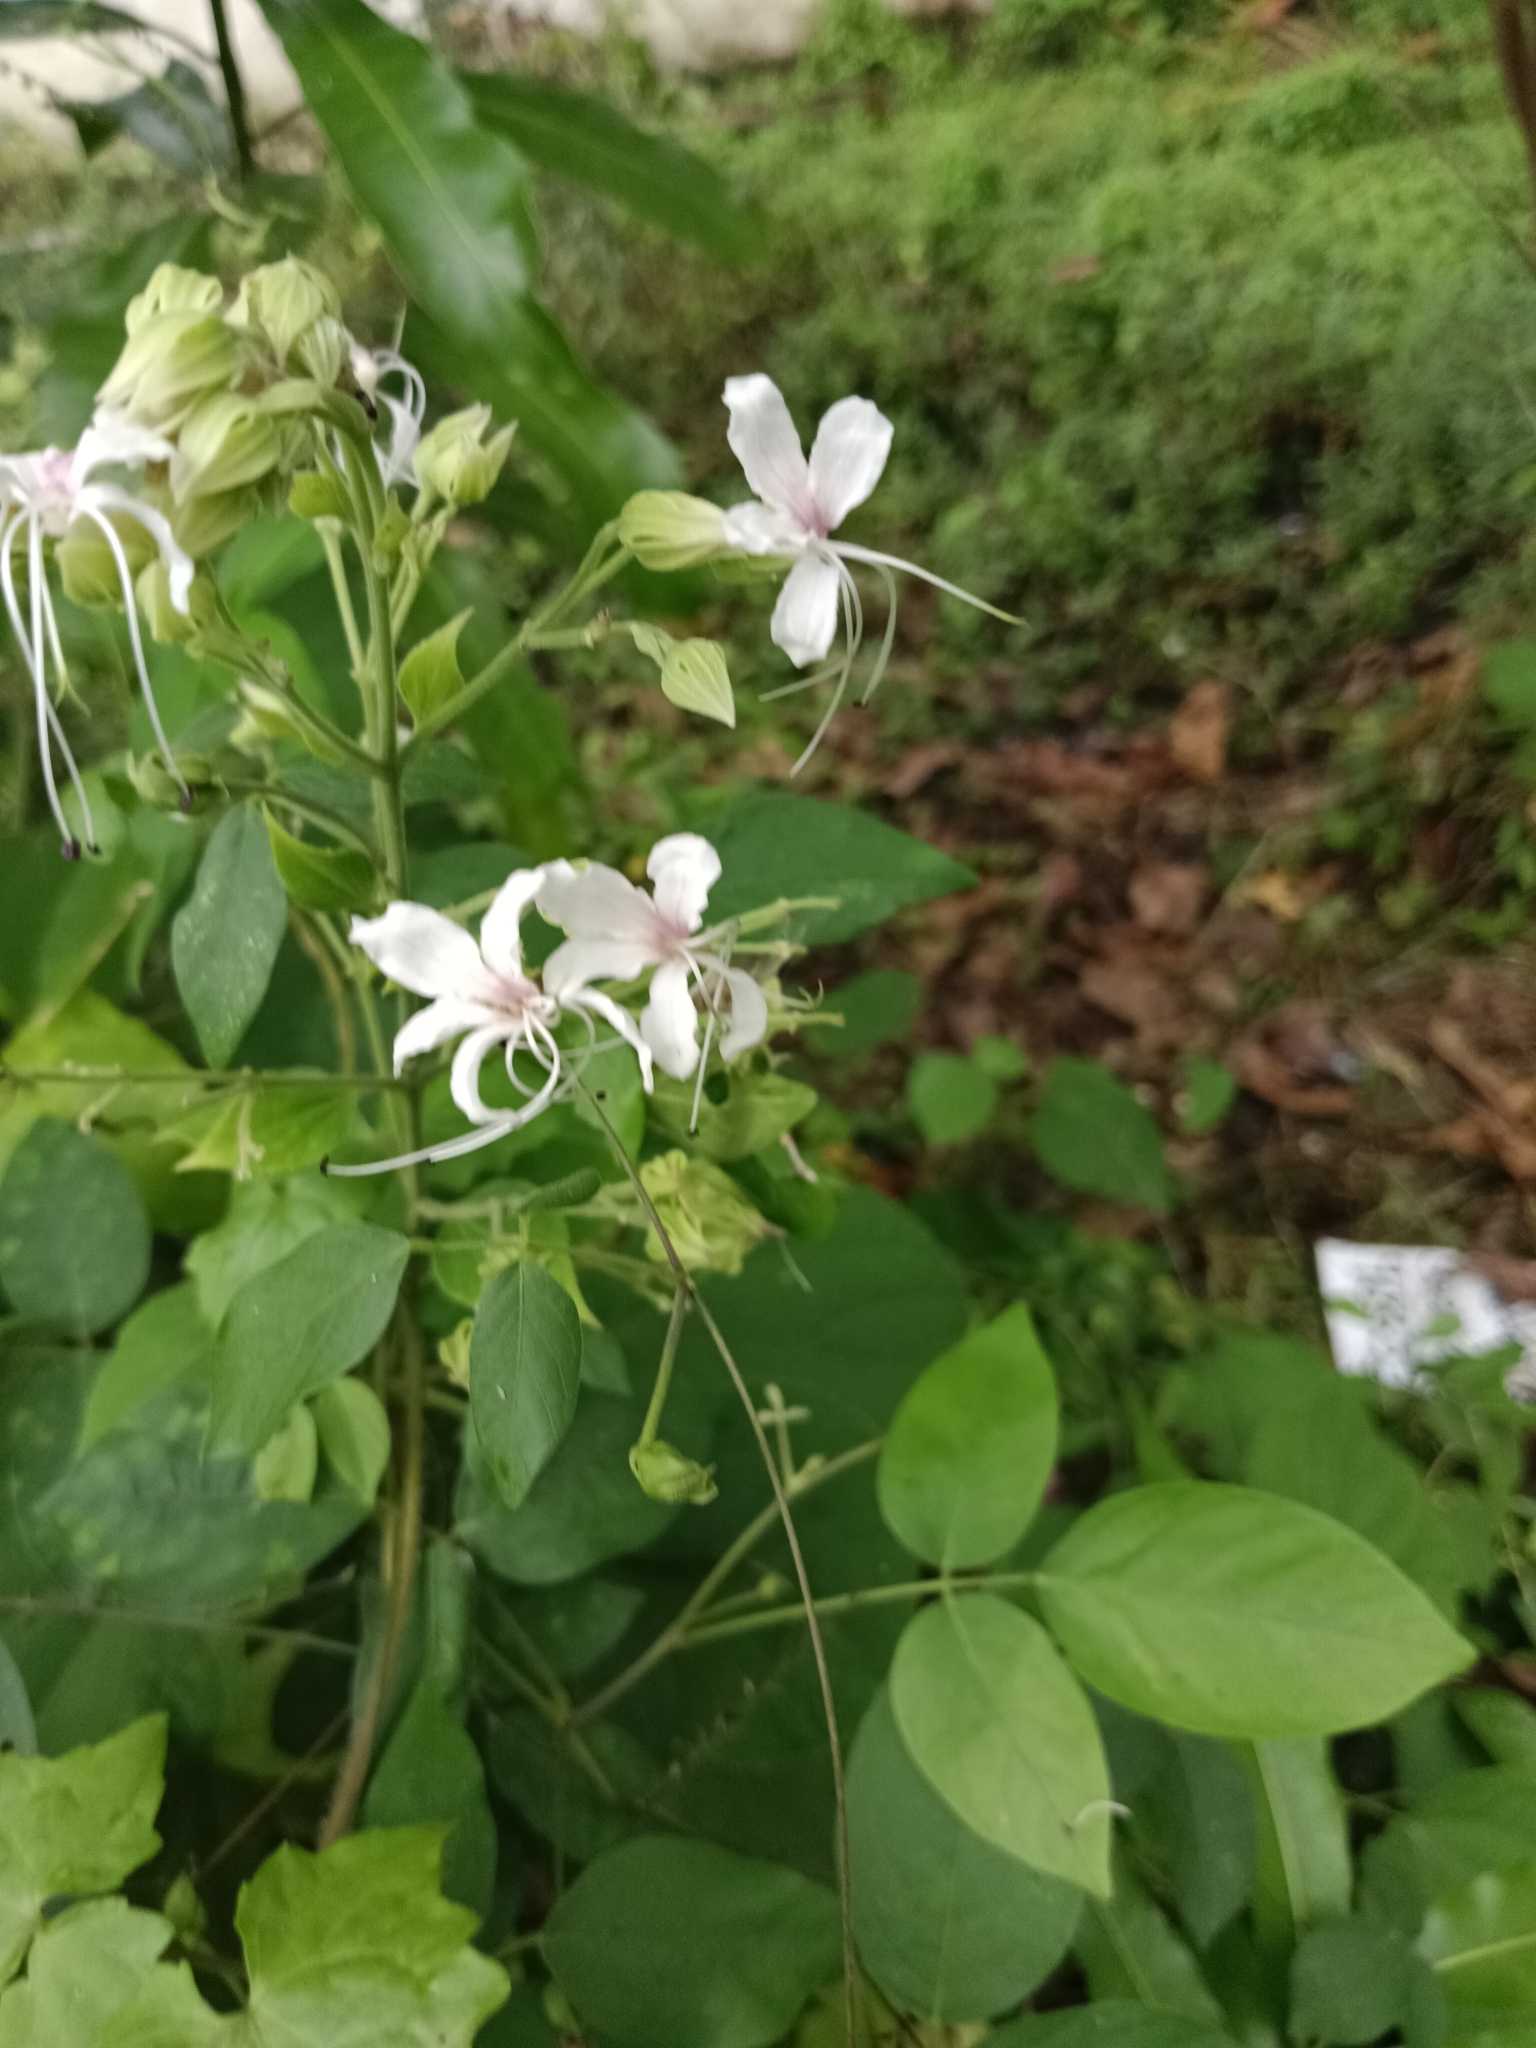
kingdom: Plantae
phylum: Tracheophyta
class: Magnoliopsida
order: Lamiales
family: Lamiaceae
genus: Clerodendrum
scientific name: Clerodendrum infortunatum
